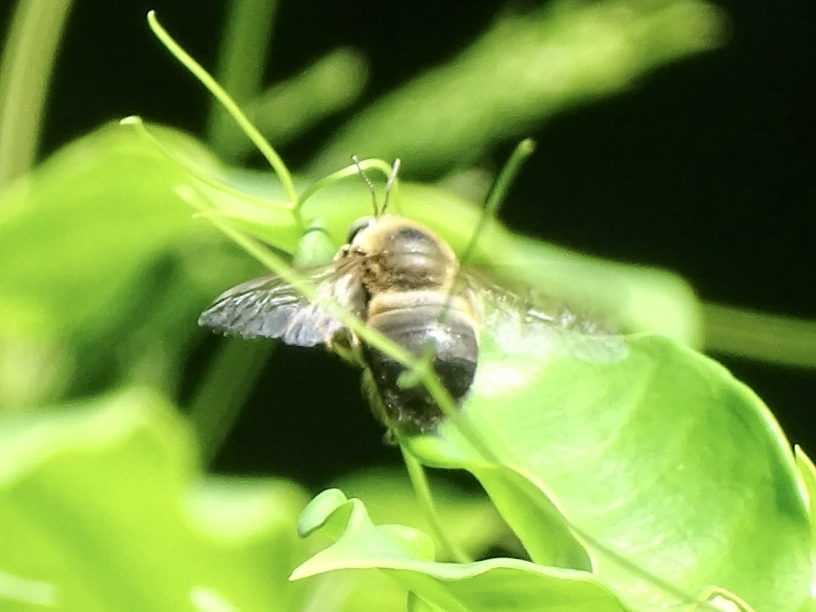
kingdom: Animalia
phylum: Arthropoda
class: Insecta
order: Hymenoptera
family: Apidae
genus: Xylocopa
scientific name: Xylocopa dejeanii
